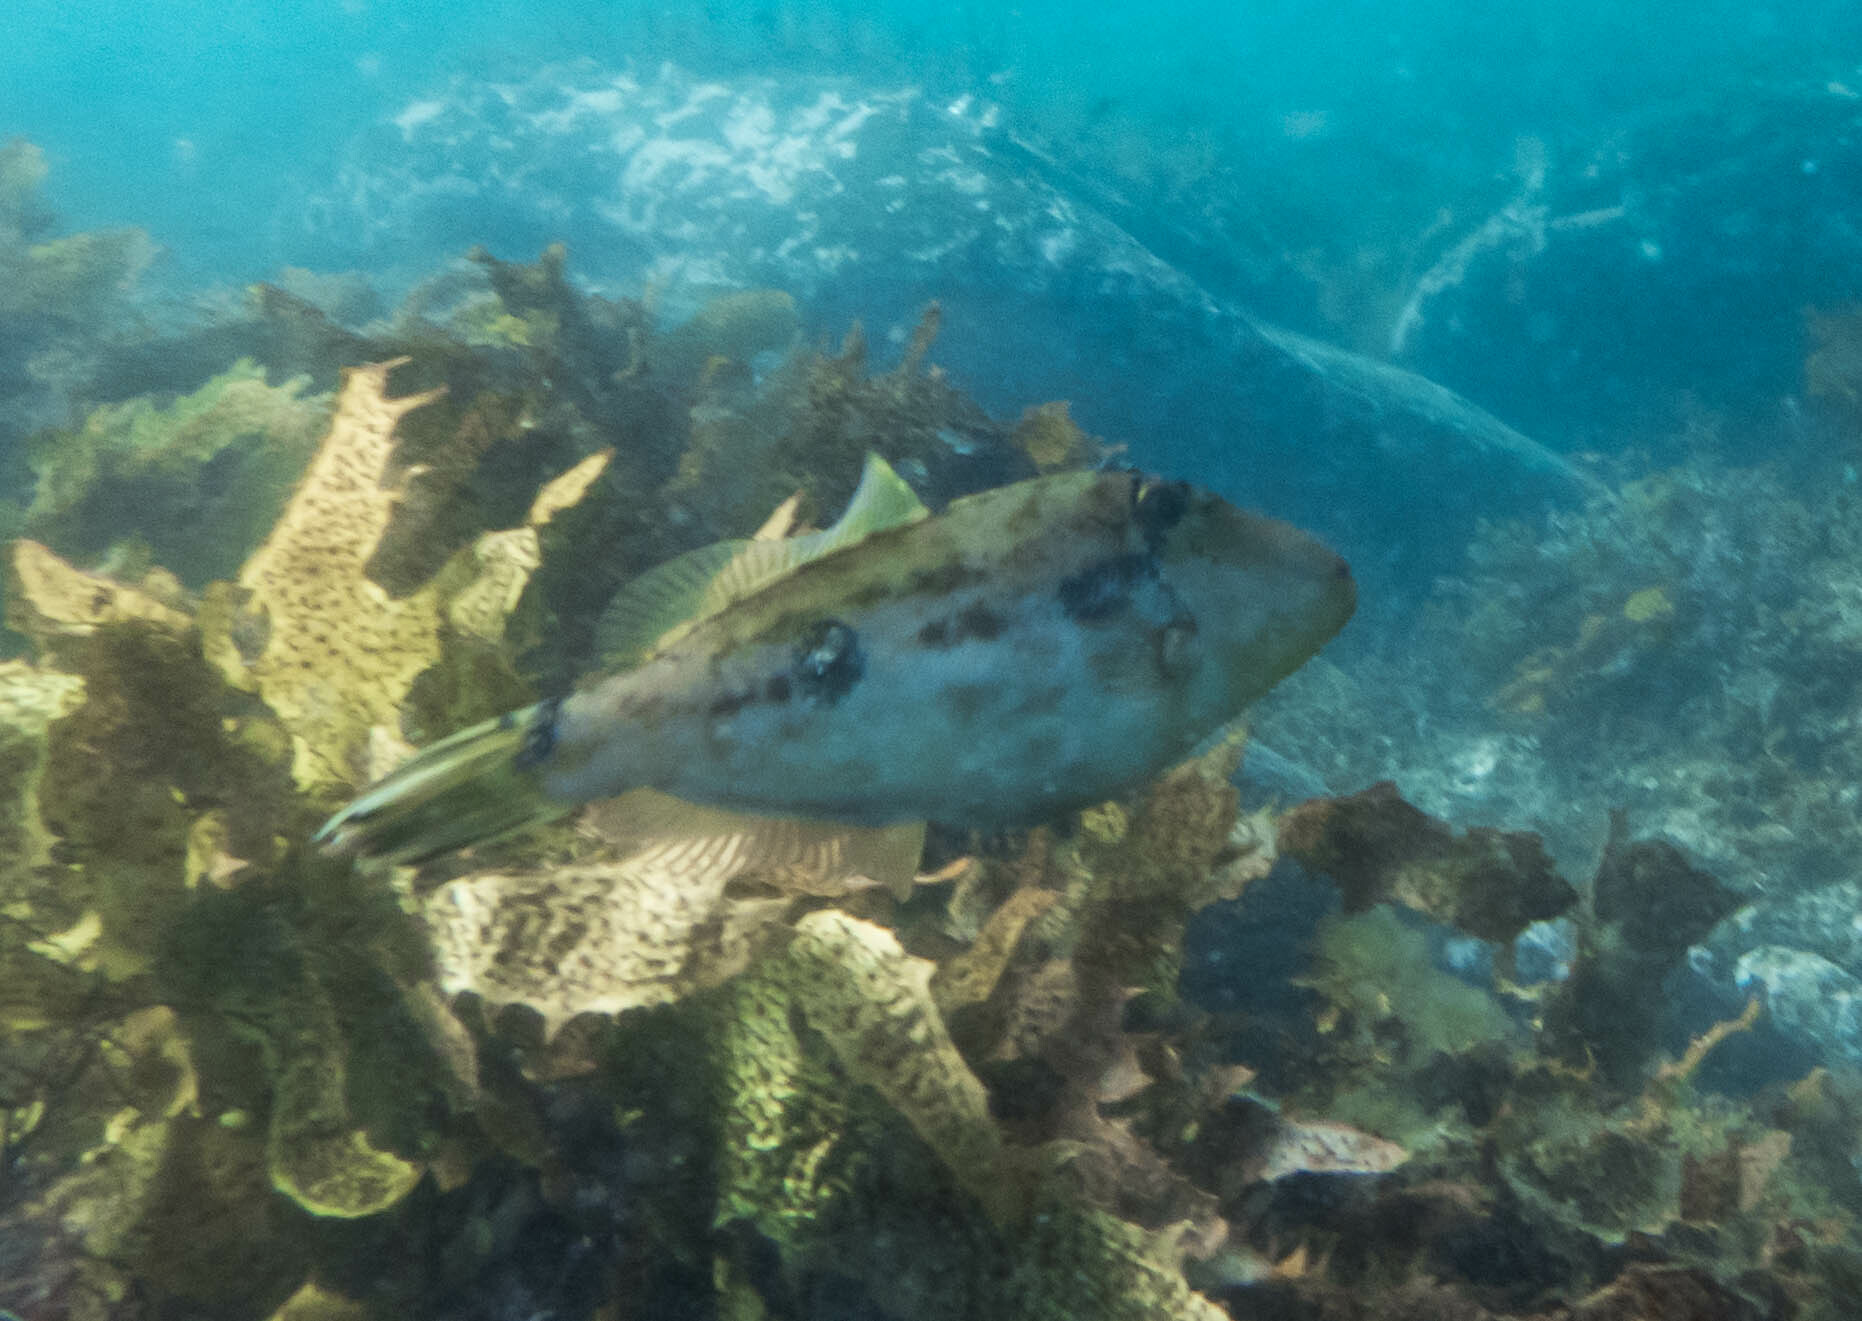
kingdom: Animalia
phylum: Chordata
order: Tetraodontiformes
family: Monacanthidae
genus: Scobinichthys
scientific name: Scobinichthys granulatus
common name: Rough leatherjacket
